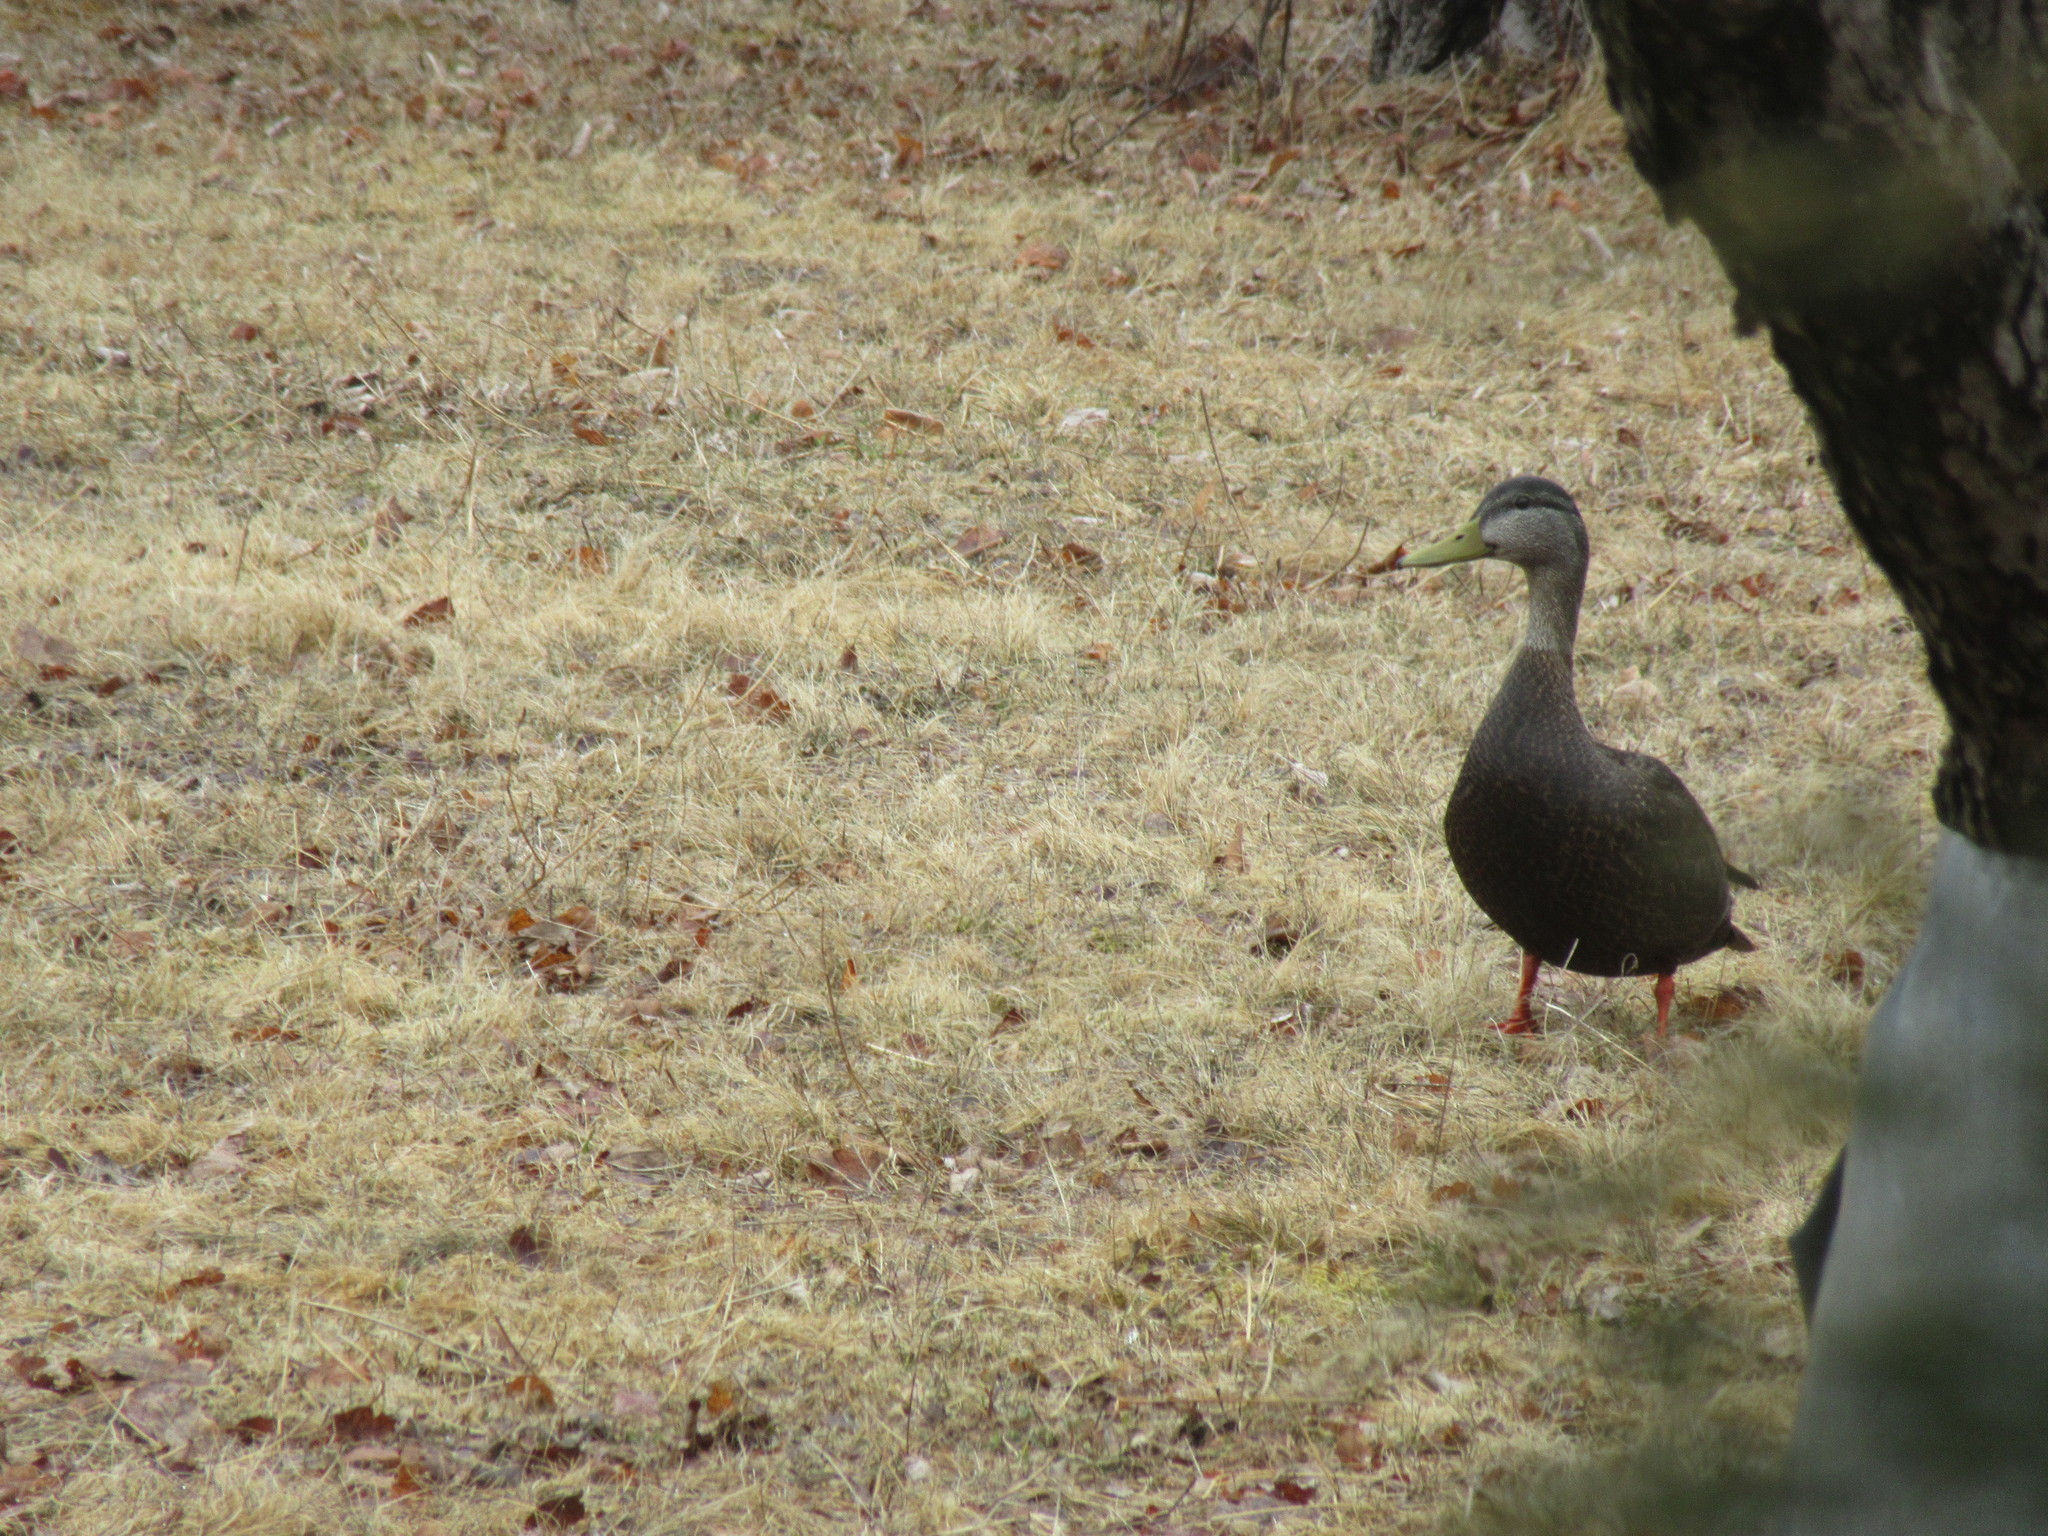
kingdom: Animalia
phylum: Chordata
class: Aves
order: Anseriformes
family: Anatidae
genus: Anas
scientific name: Anas rubripes
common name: American black duck
